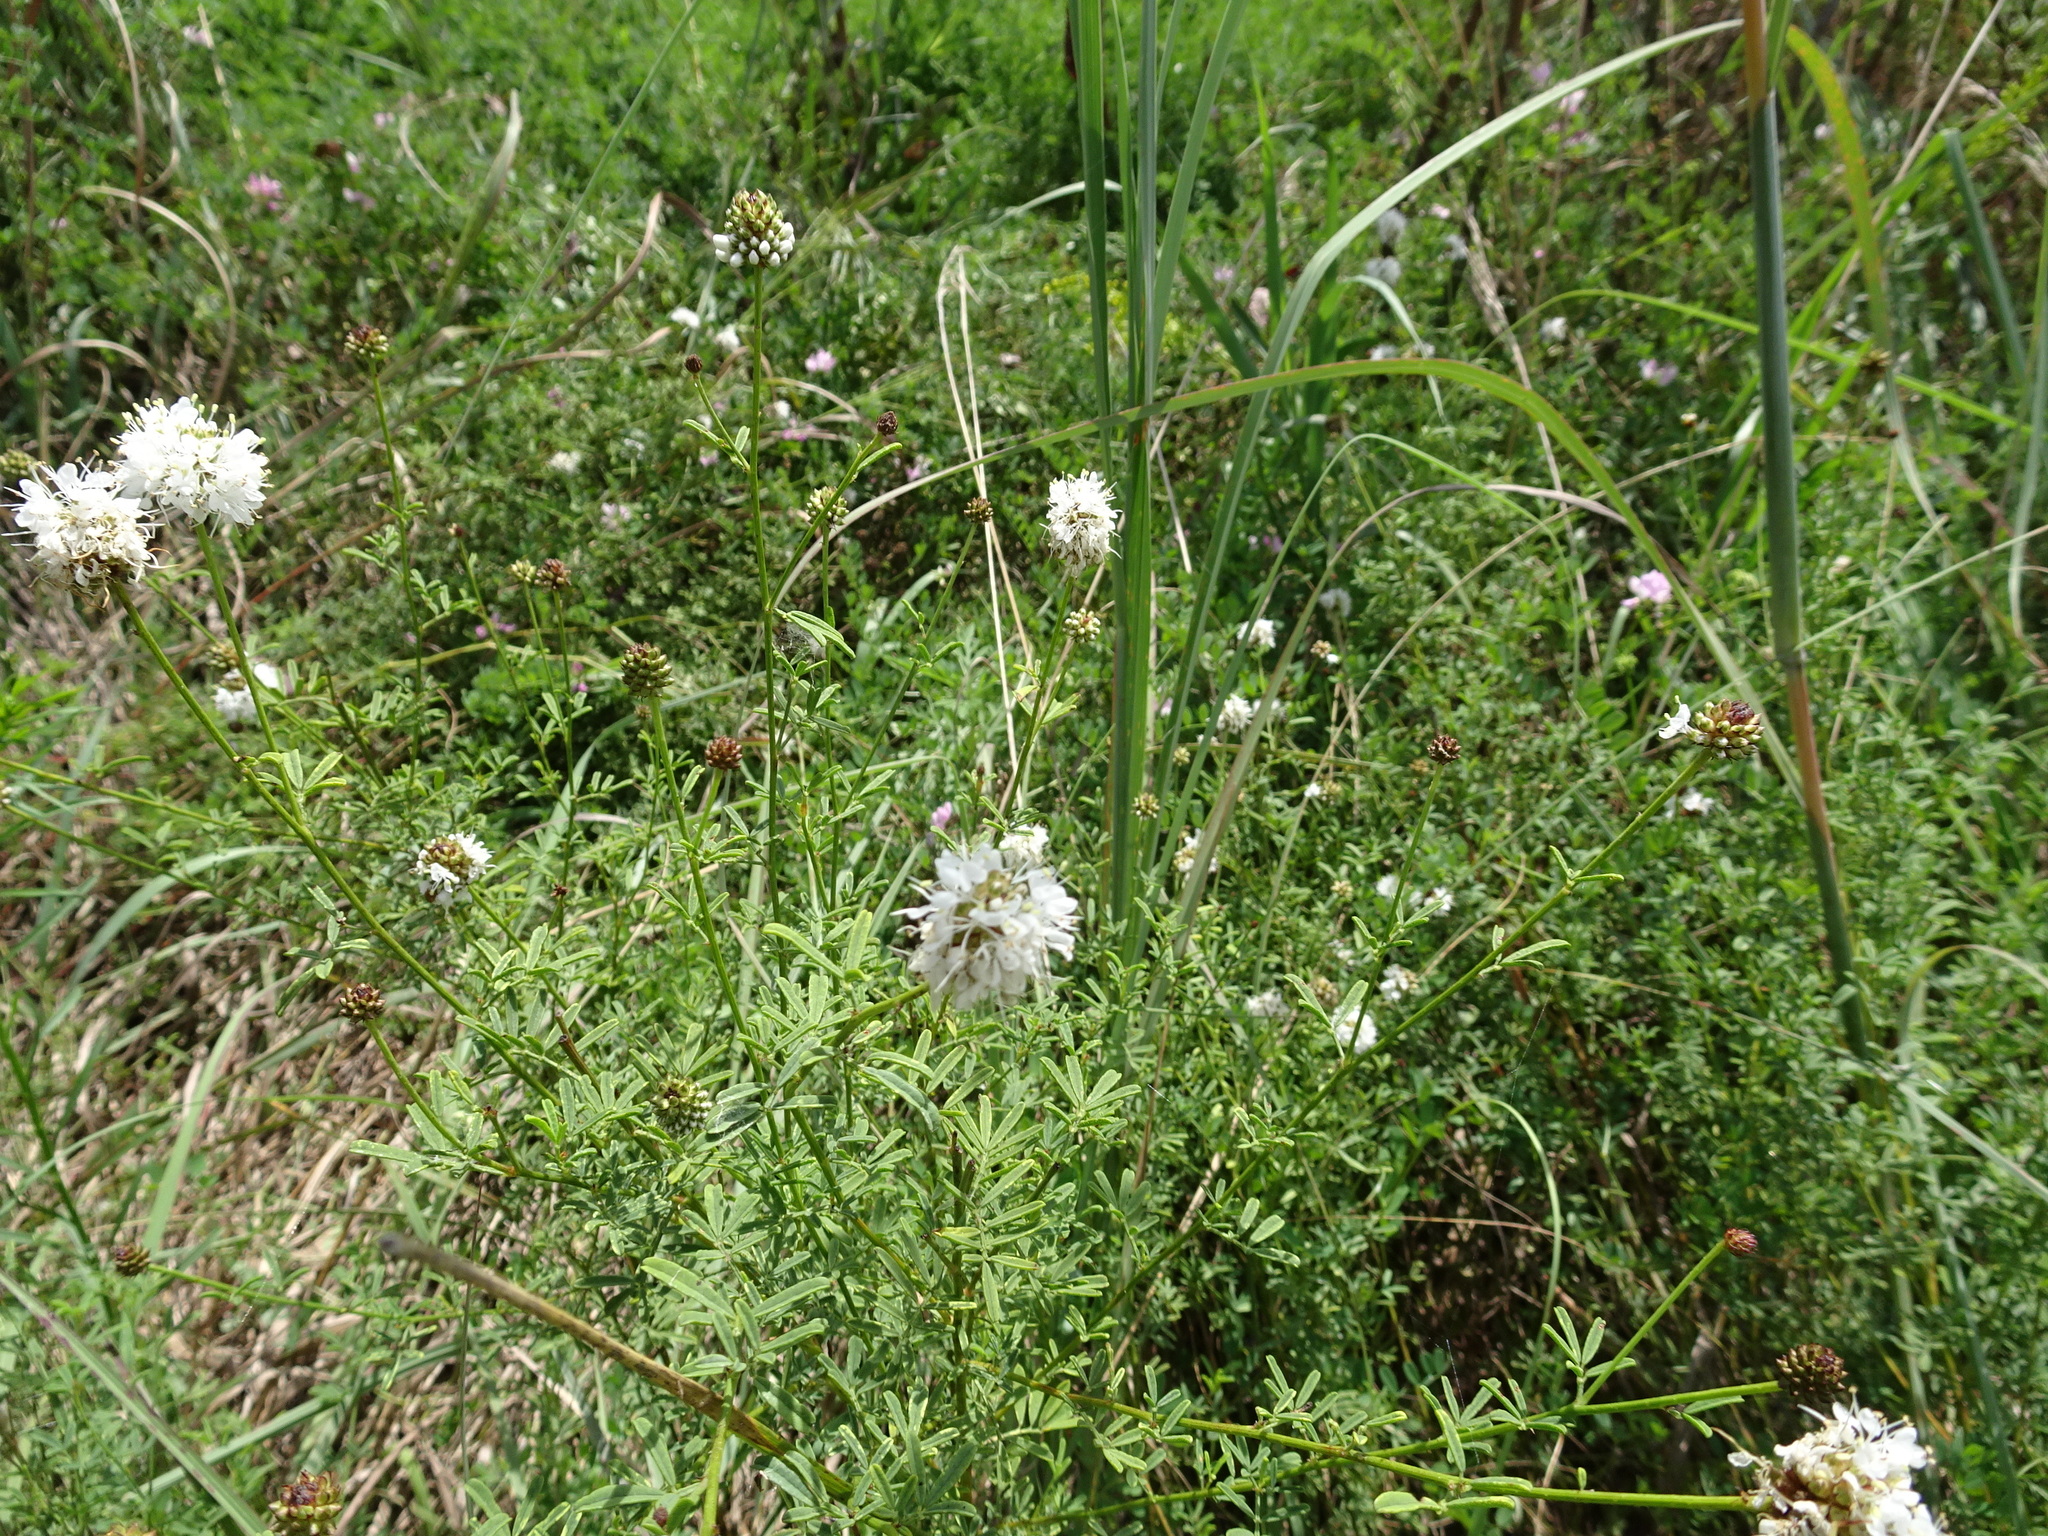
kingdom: Plantae
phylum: Tracheophyta
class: Magnoliopsida
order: Fabales
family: Fabaceae
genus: Dalea
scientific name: Dalea multiflora
